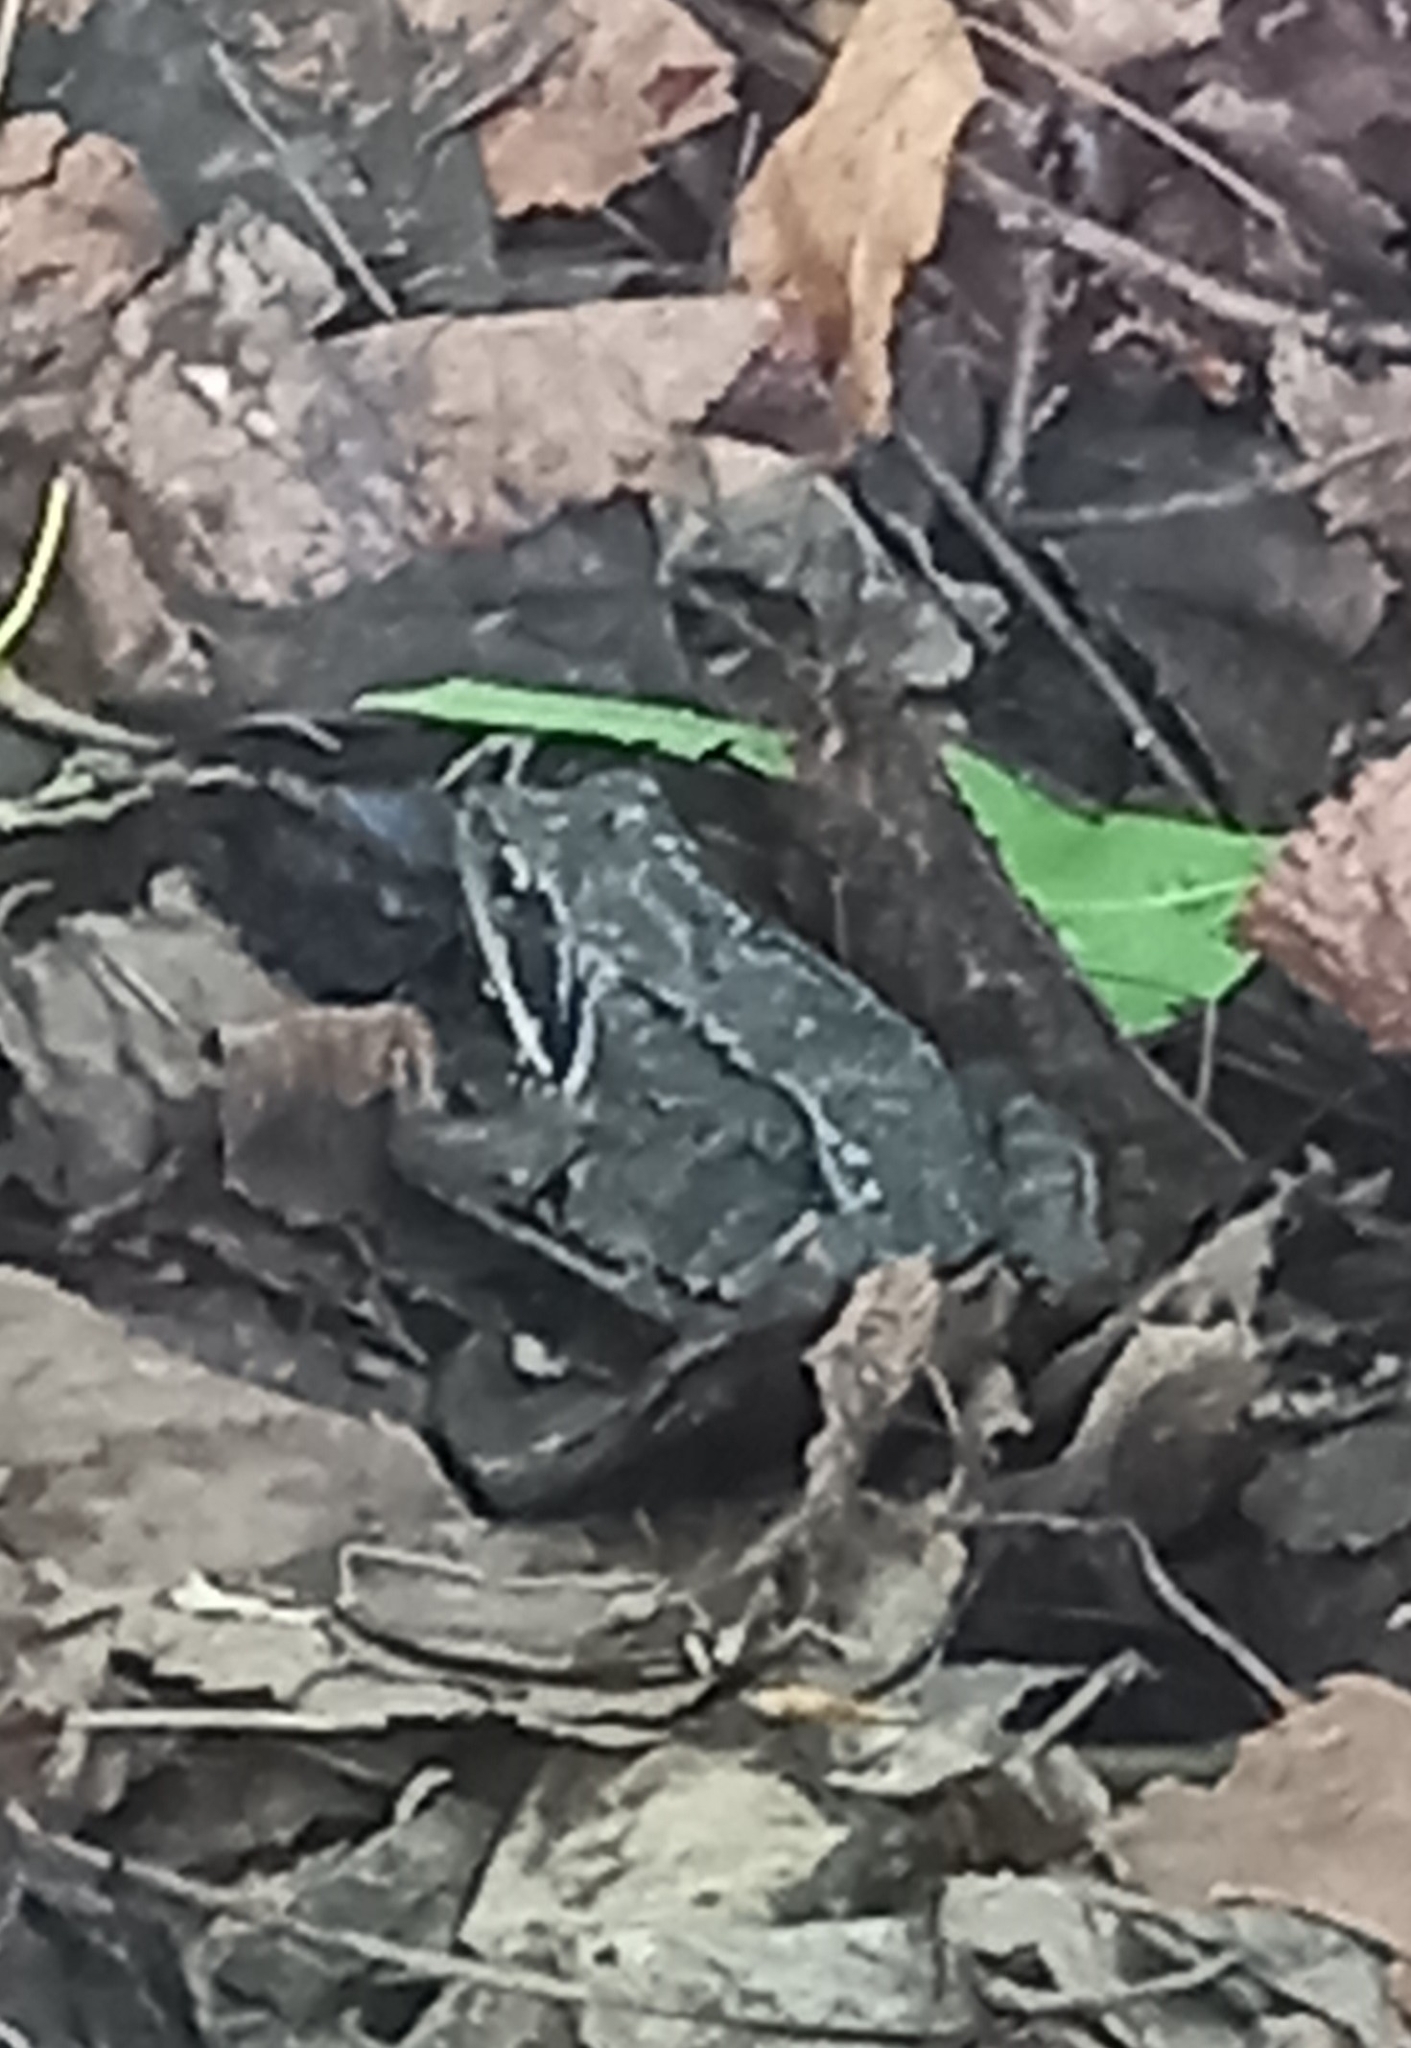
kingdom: Animalia
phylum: Chordata
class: Amphibia
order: Anura
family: Ranidae
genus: Rana
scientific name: Rana temporaria
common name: Common frog
